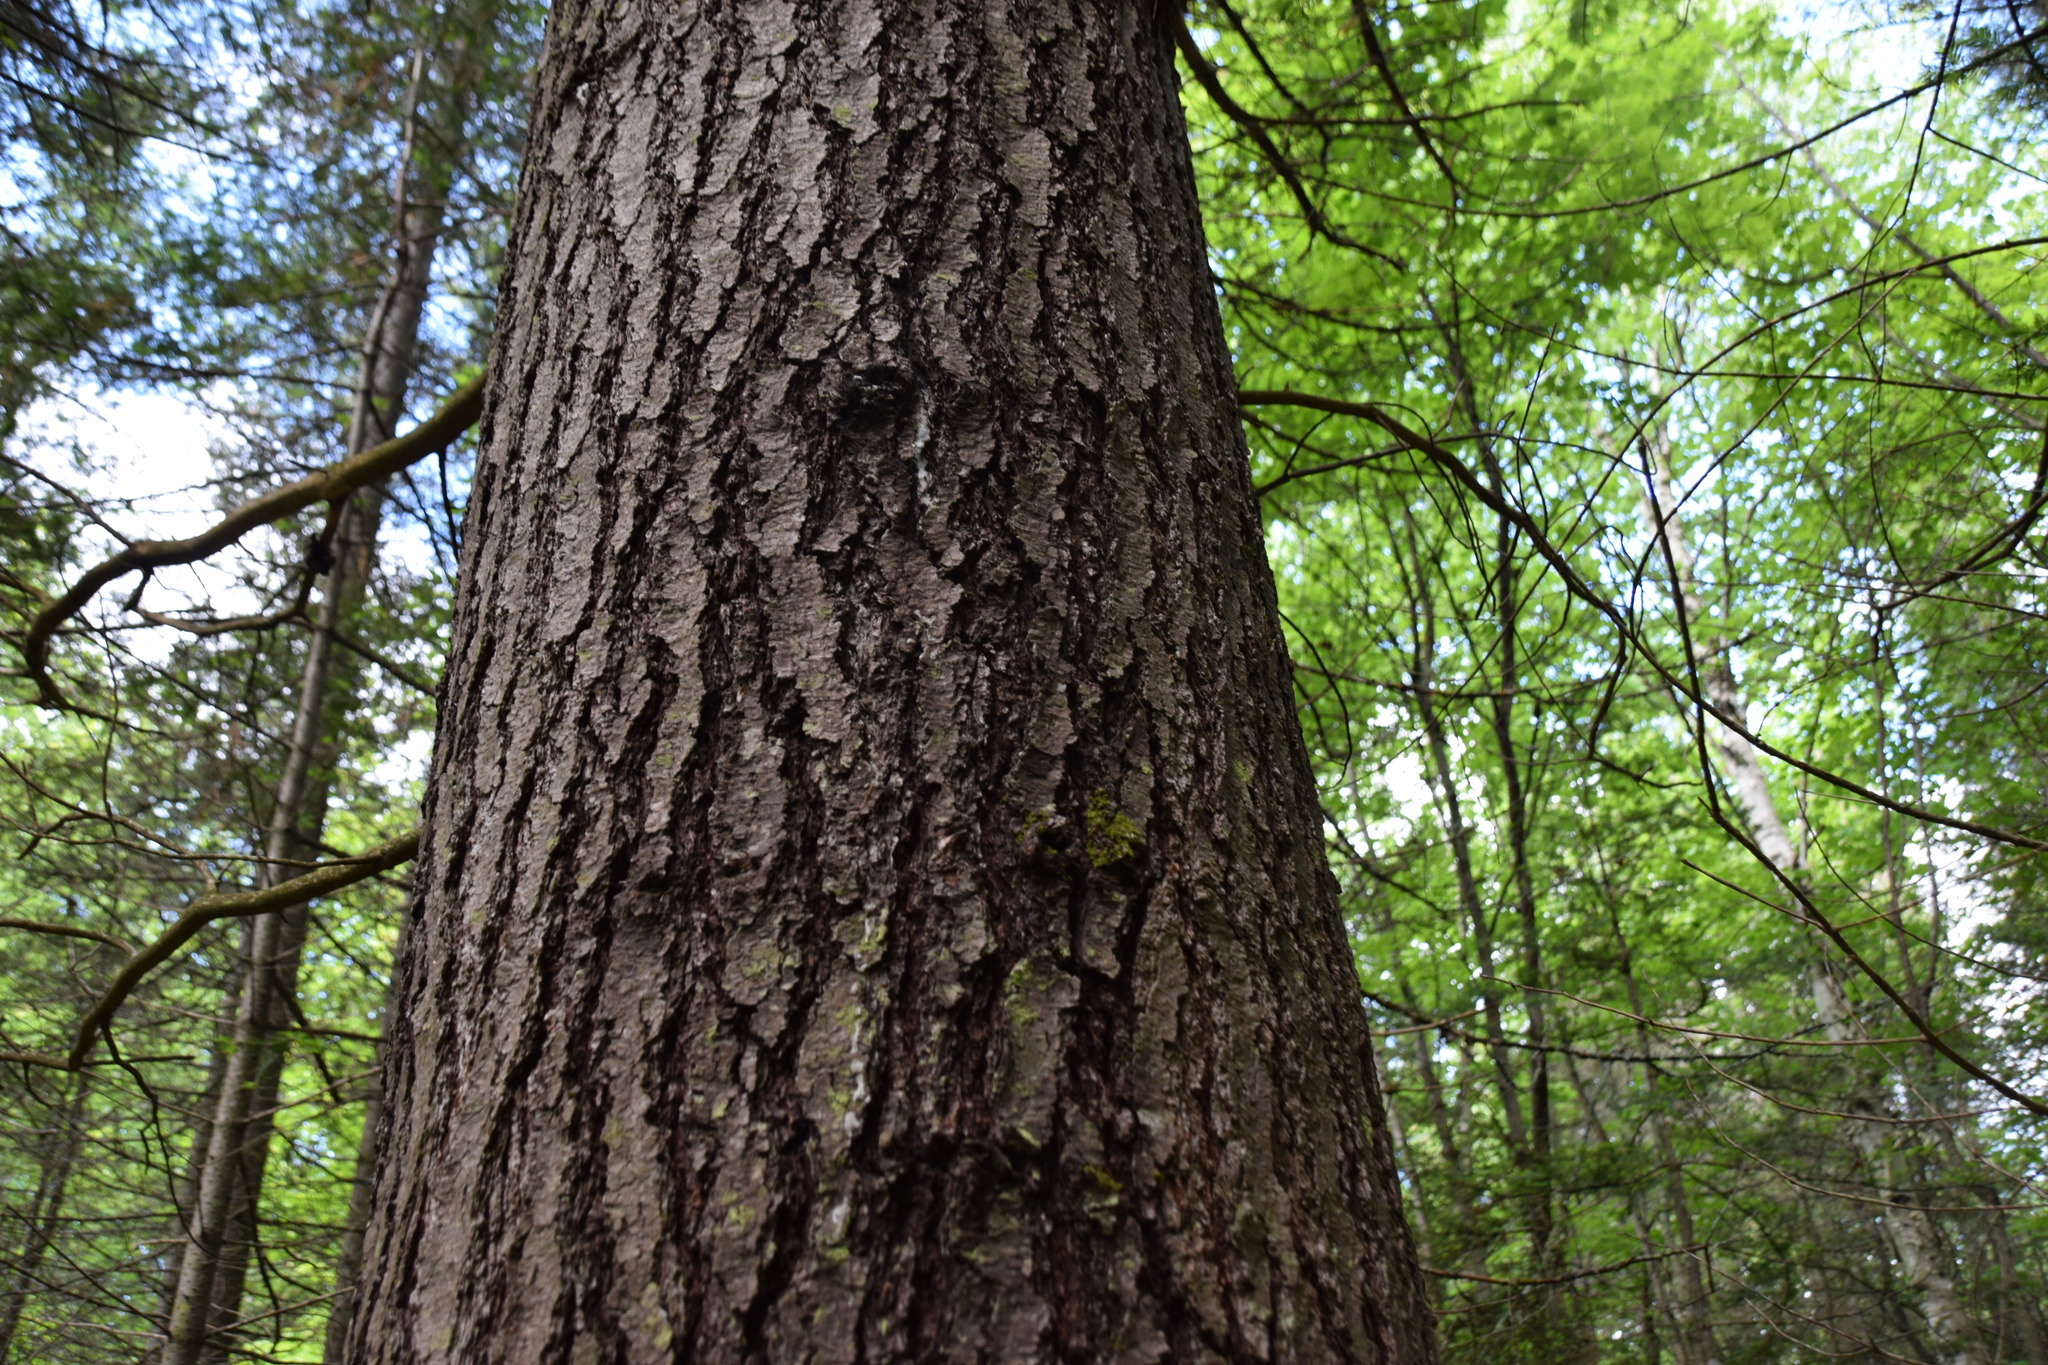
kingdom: Plantae
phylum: Tracheophyta
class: Pinopsida
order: Pinales
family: Pinaceae
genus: Pinus
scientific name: Pinus strobus
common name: Weymouth pine
